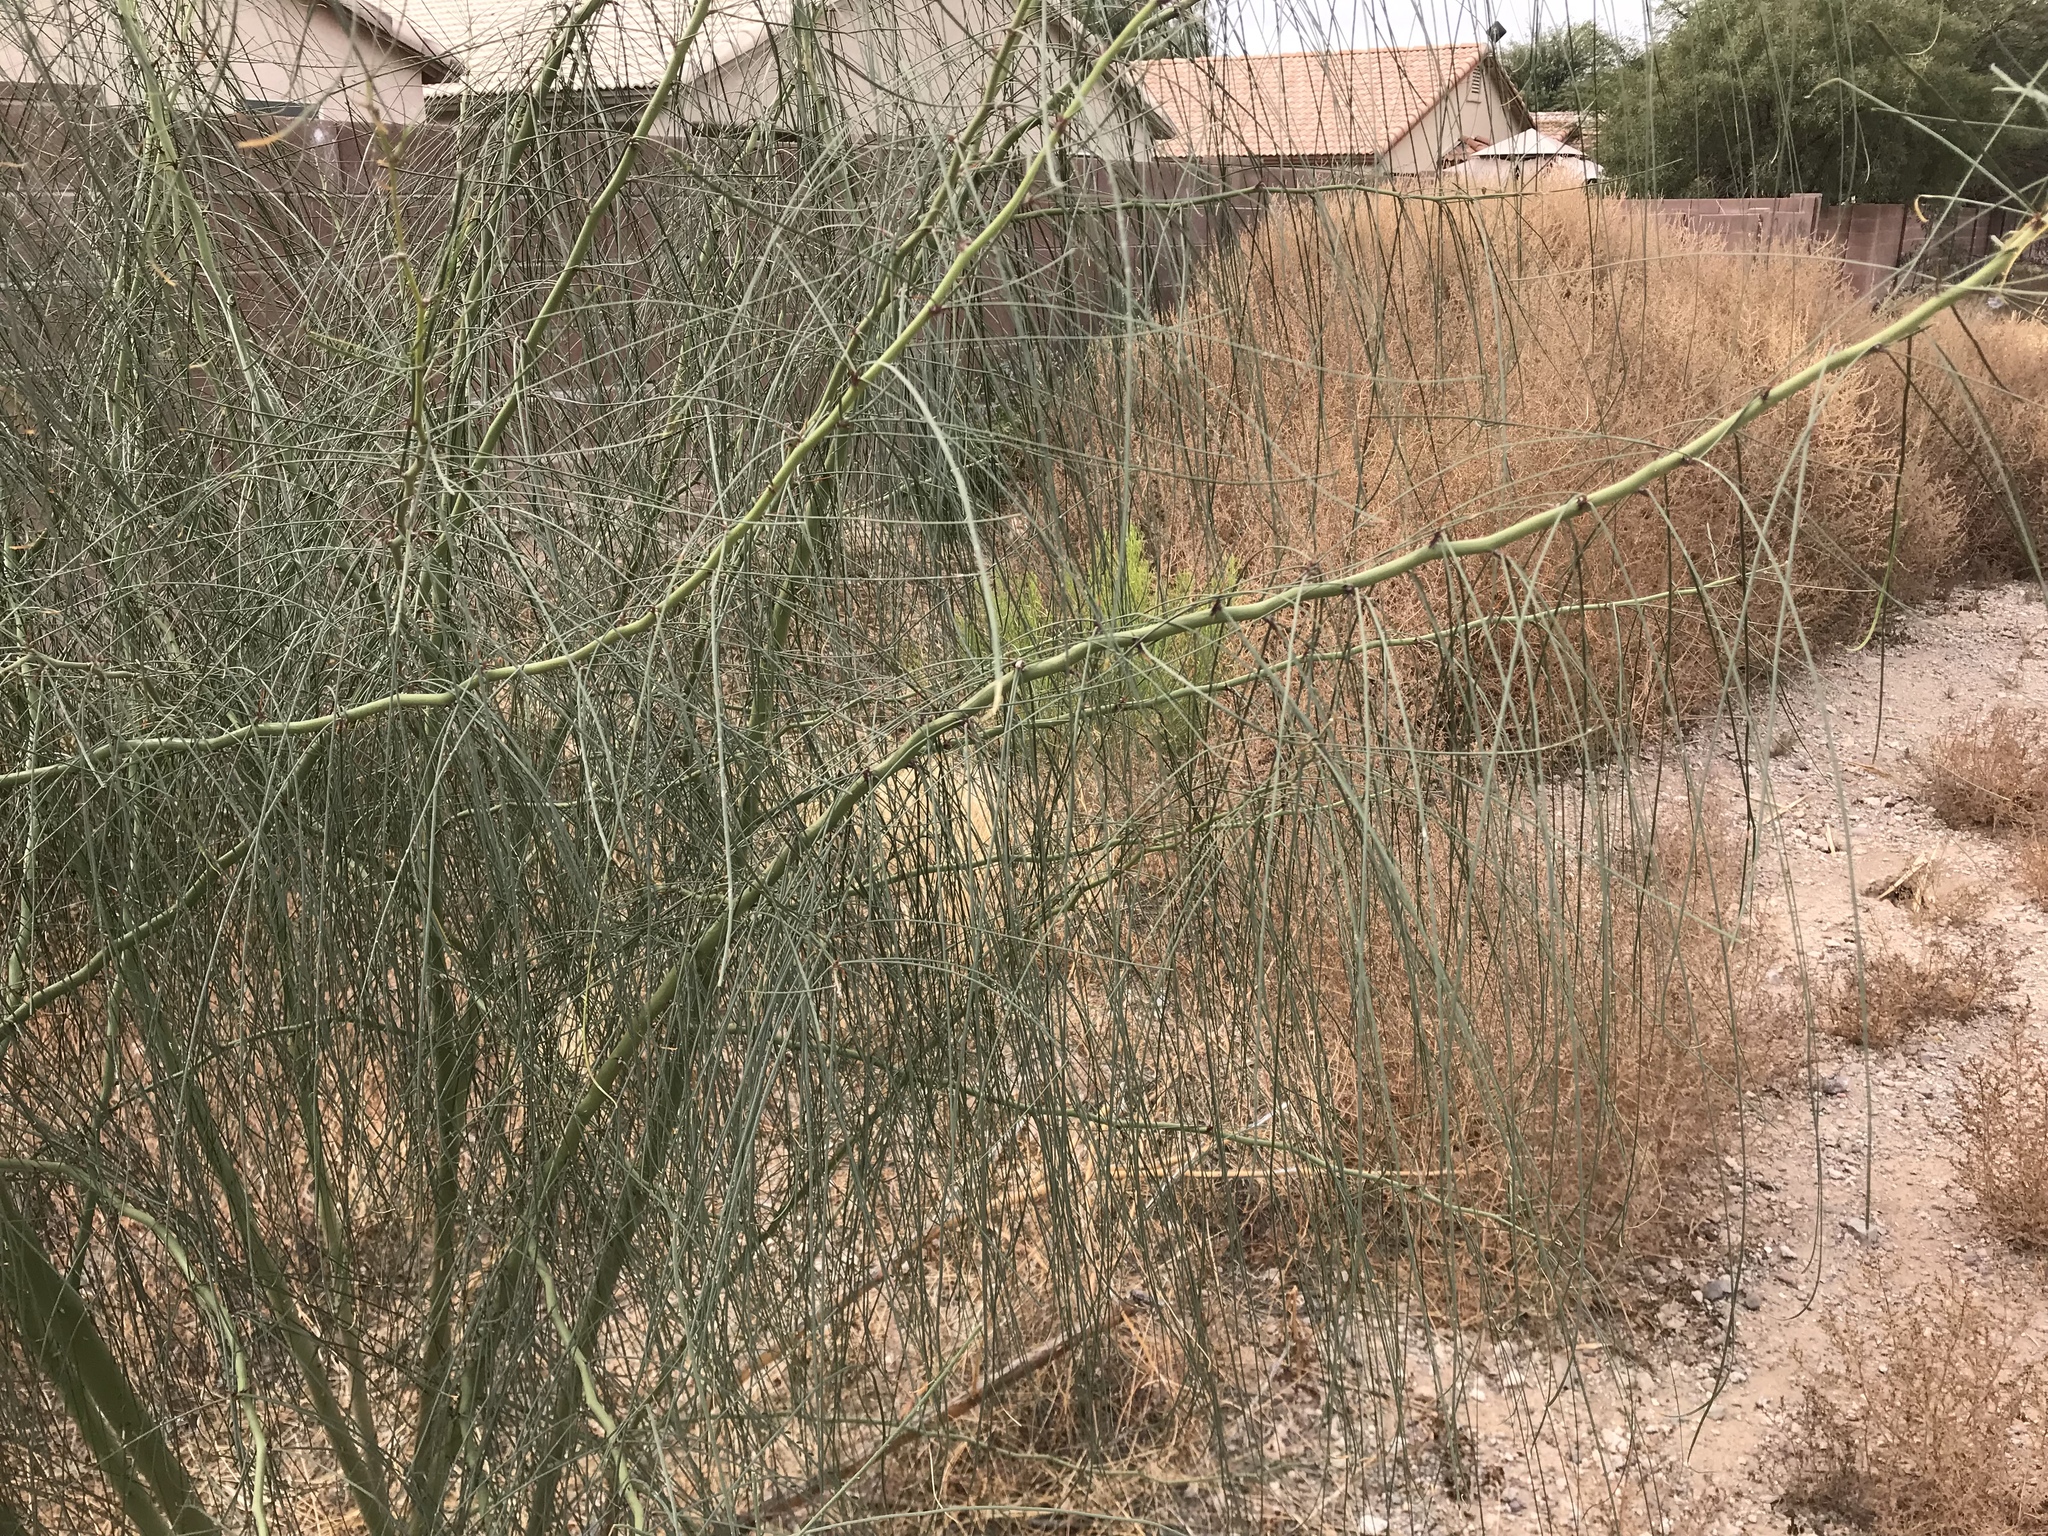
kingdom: Plantae
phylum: Tracheophyta
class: Magnoliopsida
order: Fabales
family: Fabaceae
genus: Parkinsonia
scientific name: Parkinsonia aculeata
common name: Jerusalem thorn
